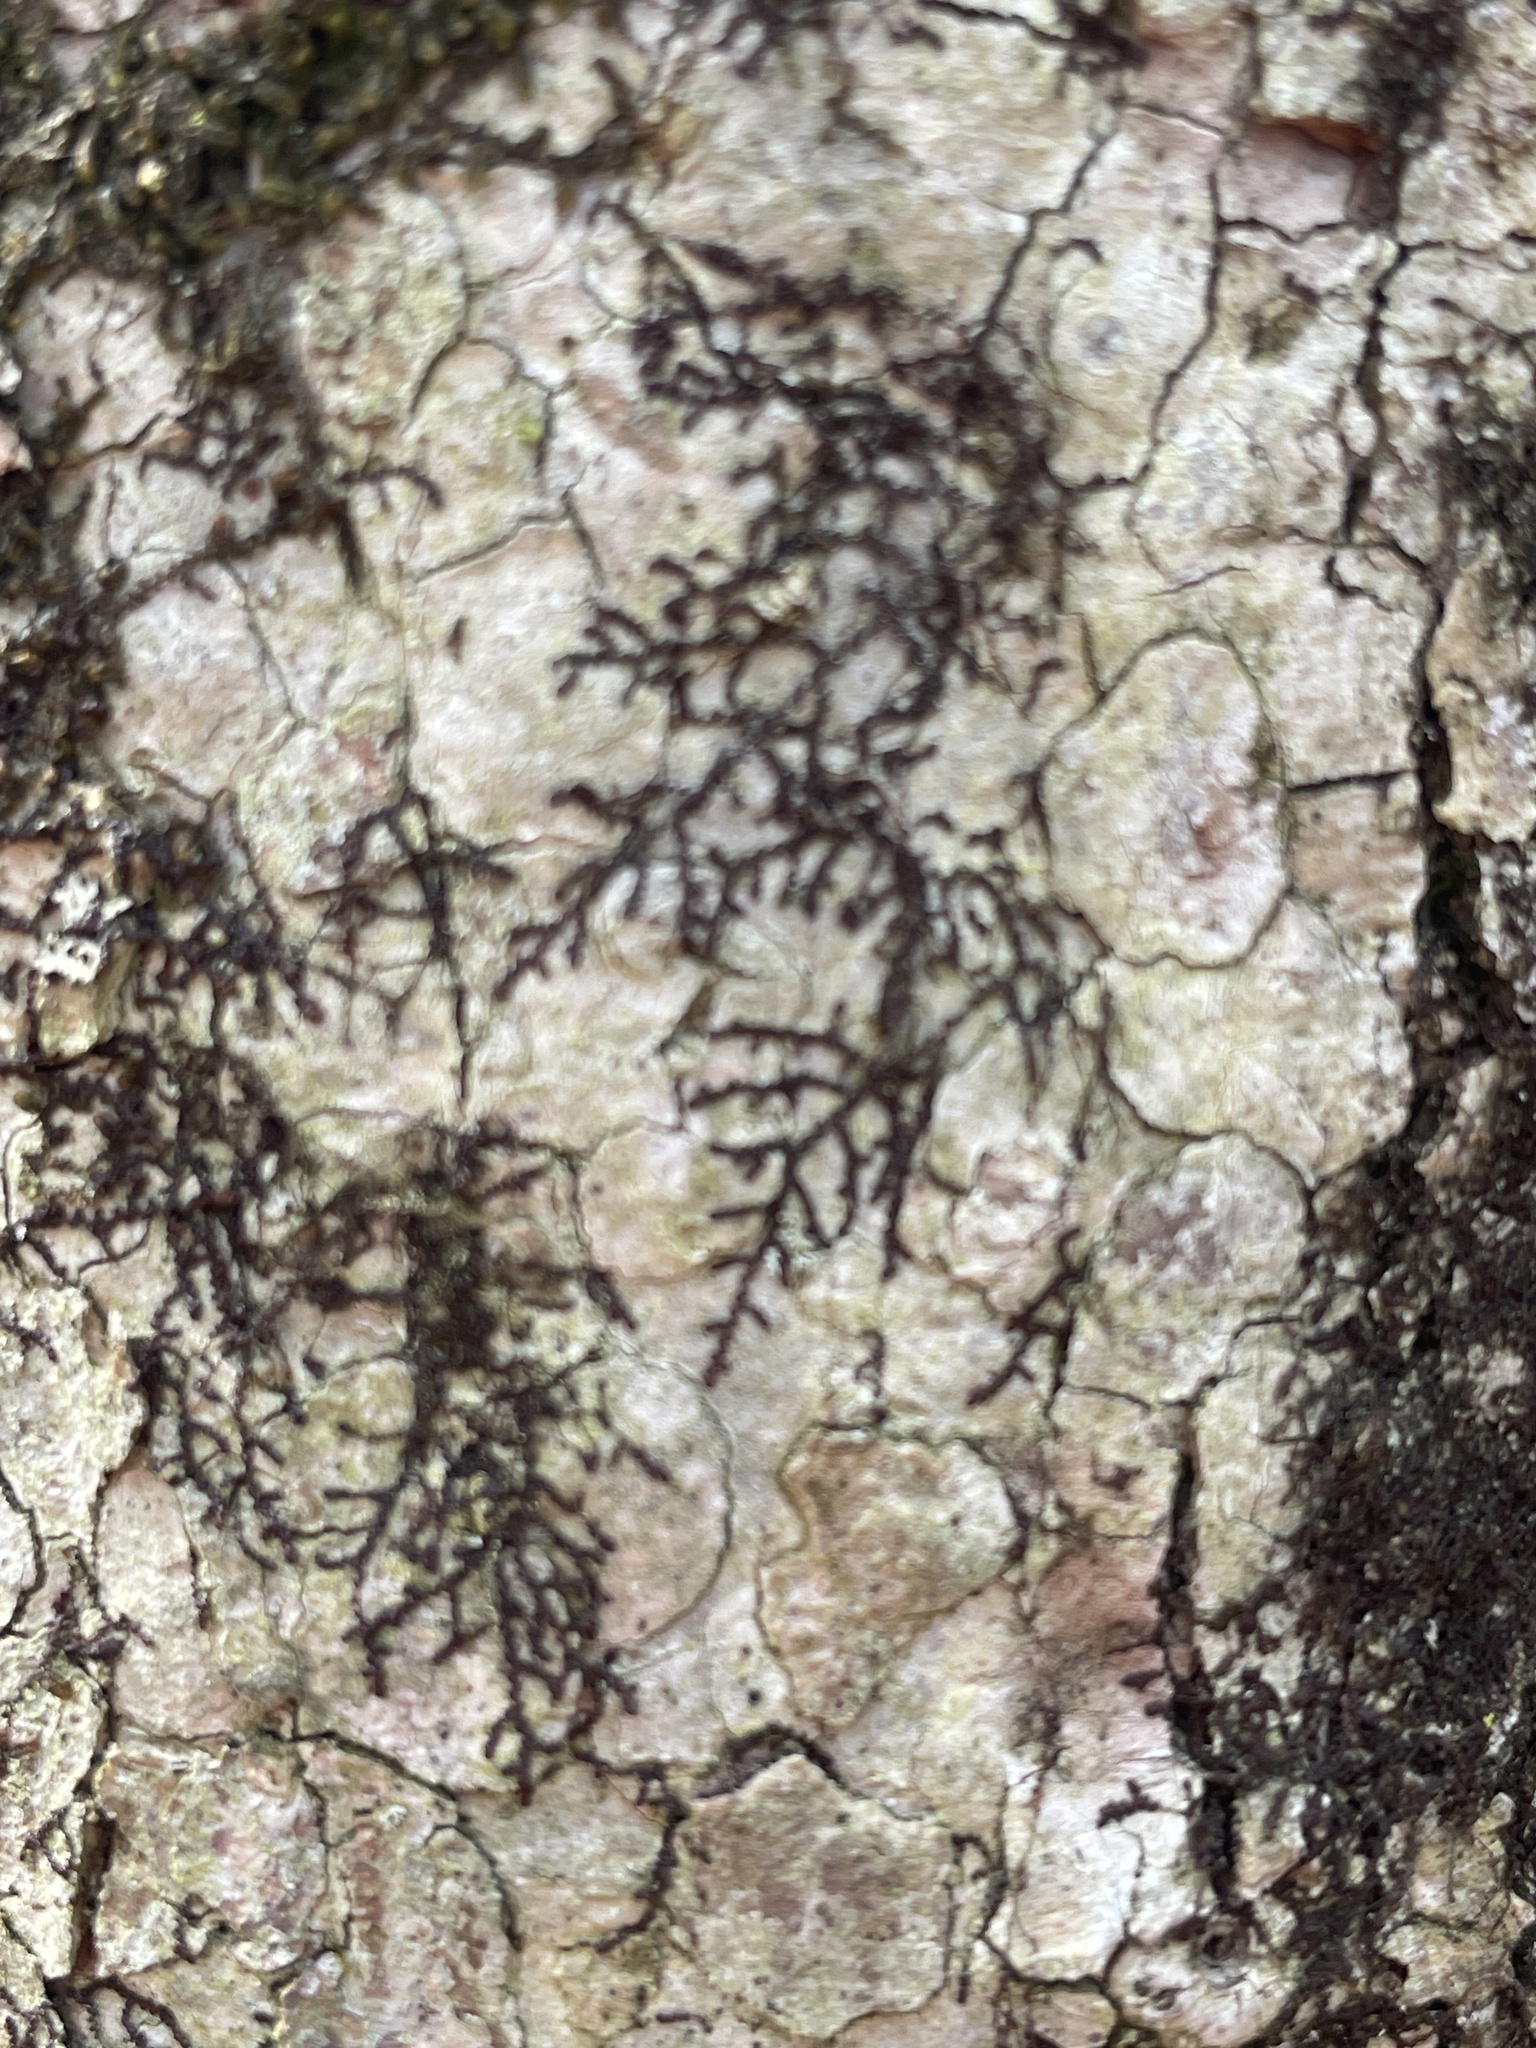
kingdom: Plantae
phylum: Marchantiophyta
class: Jungermanniopsida
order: Porellales
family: Frullaniaceae
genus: Frullania
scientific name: Frullania eboracensis
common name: New york scalewort
